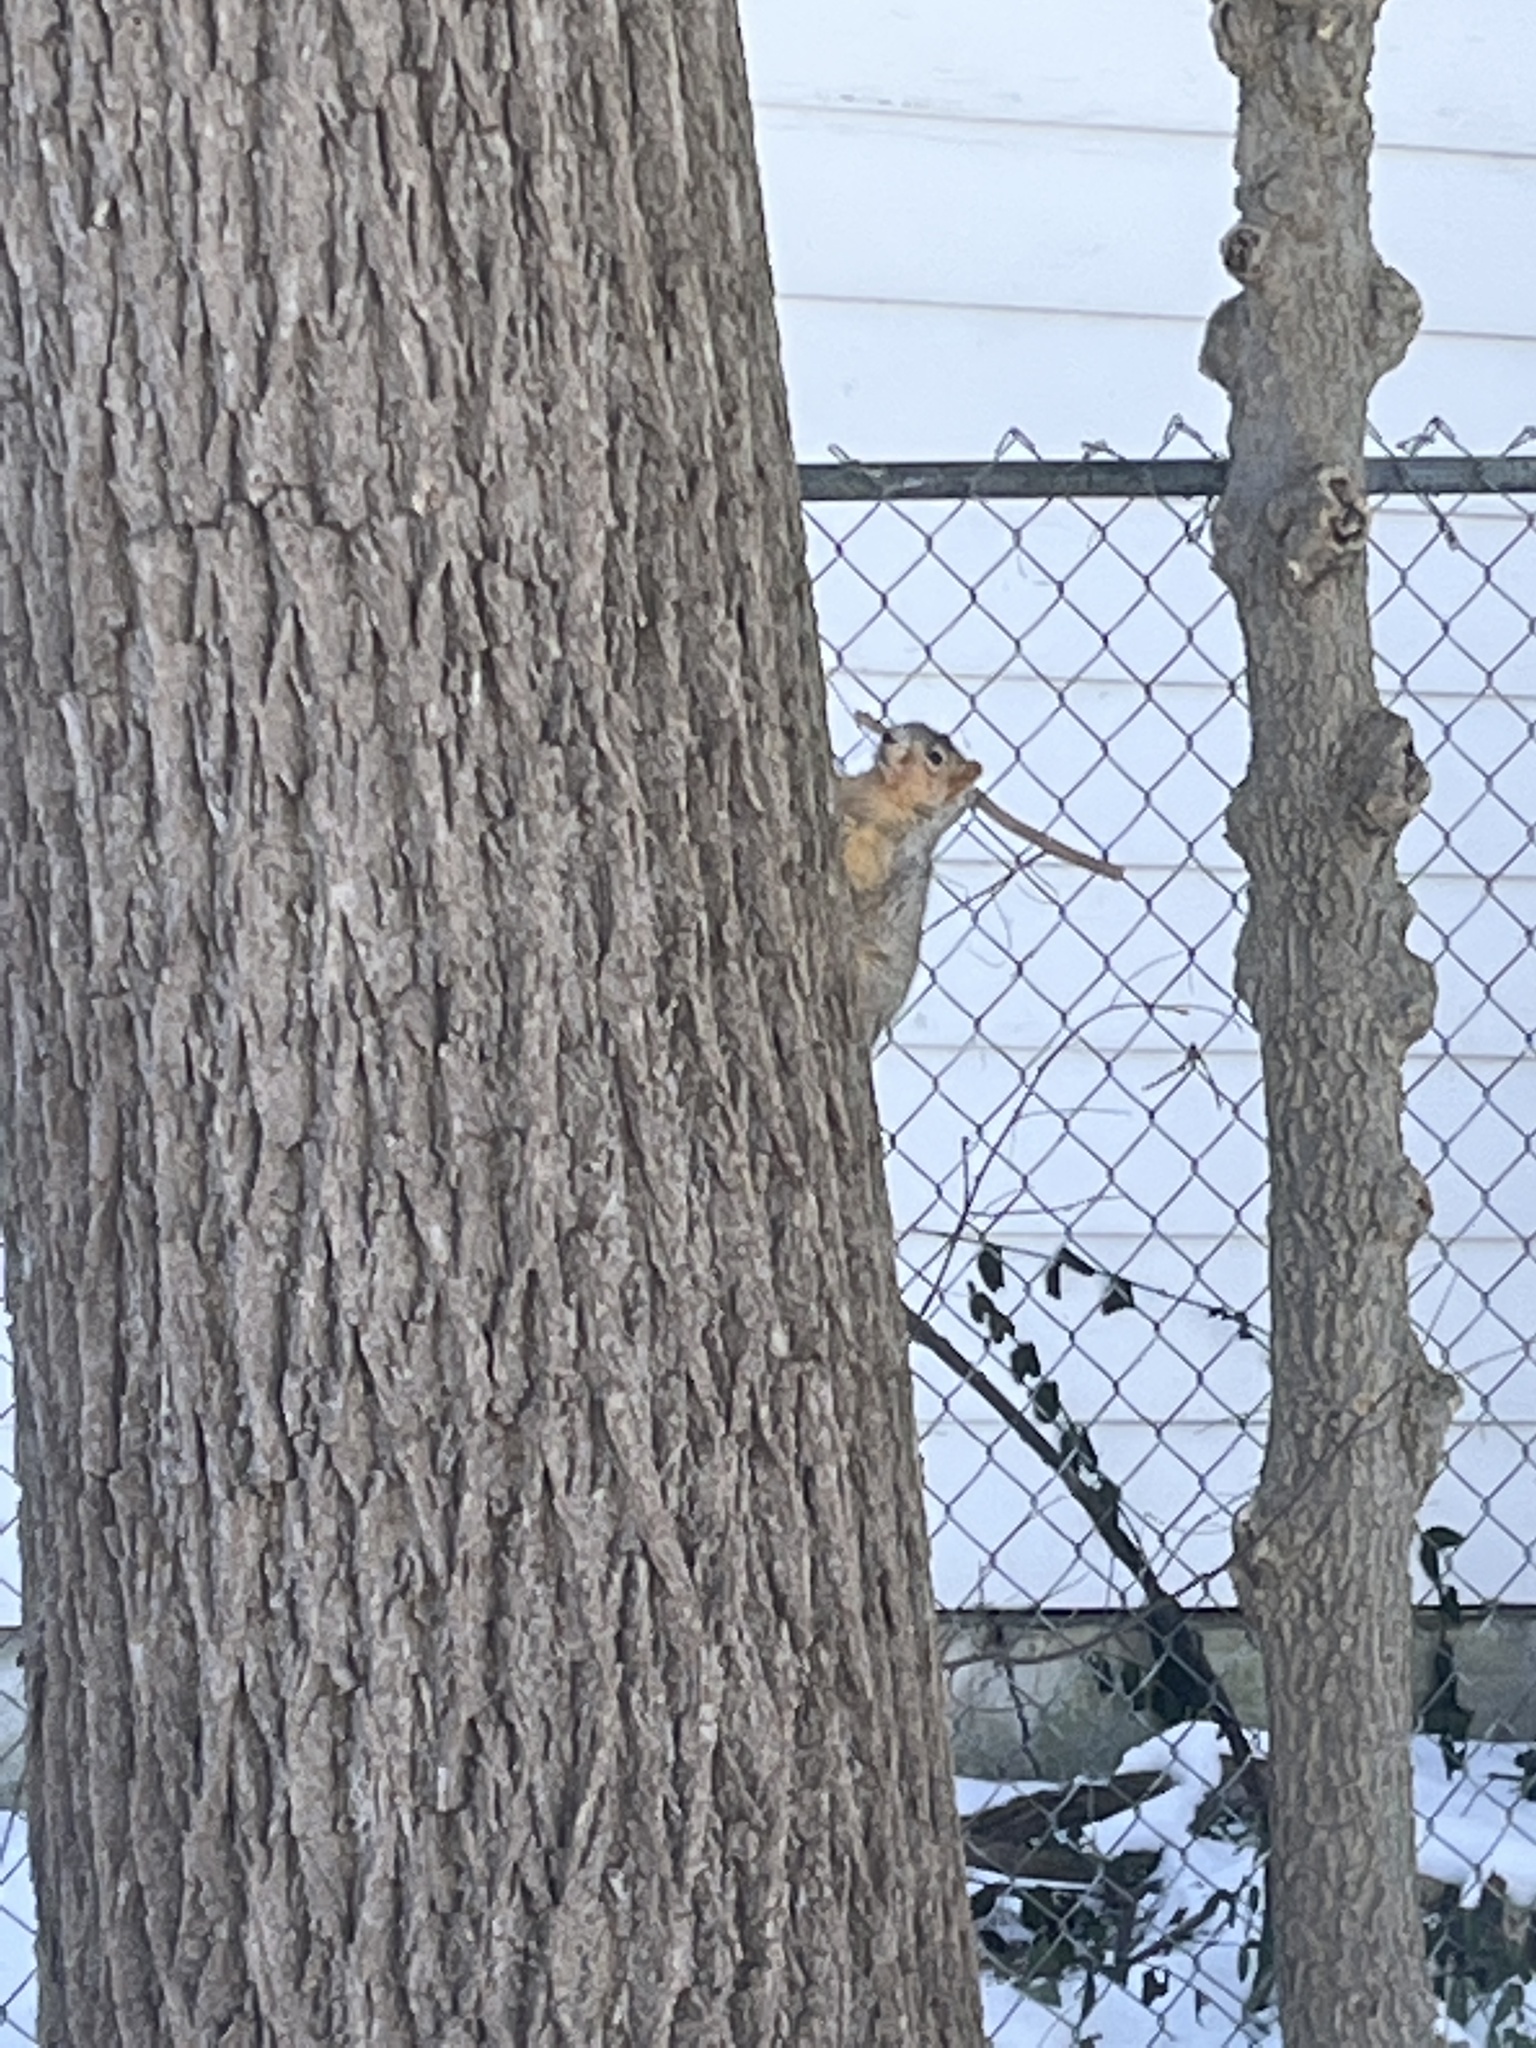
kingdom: Animalia
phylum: Chordata
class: Mammalia
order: Rodentia
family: Sciuridae
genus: Sciurus
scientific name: Sciurus niger
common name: Fox squirrel
